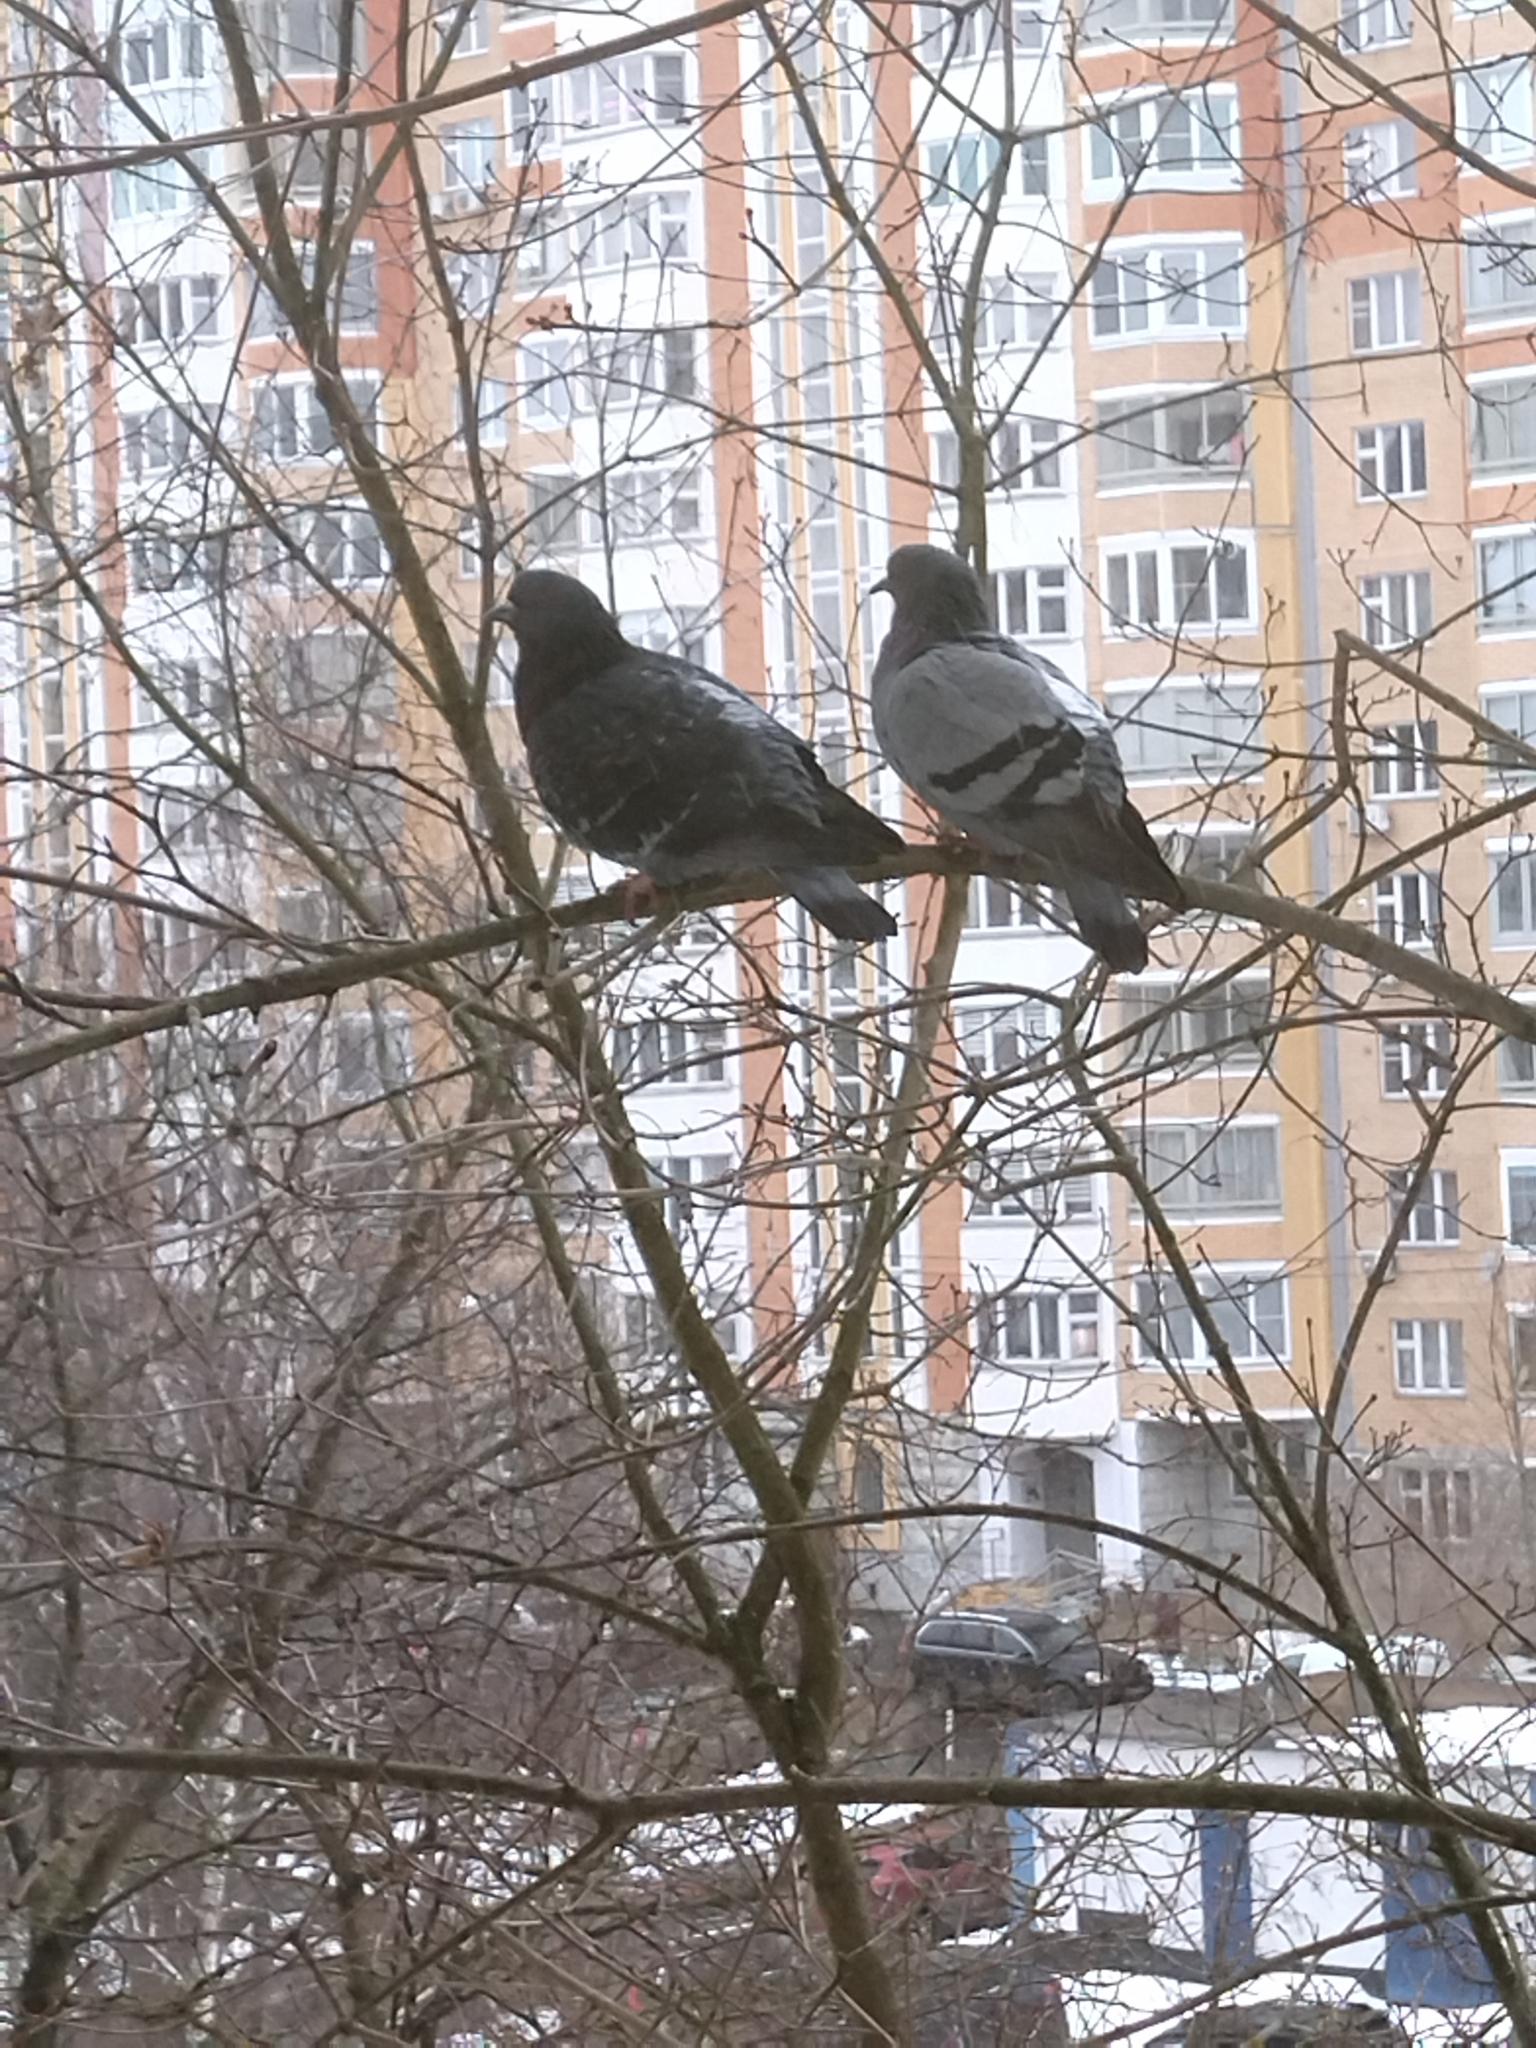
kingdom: Animalia
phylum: Chordata
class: Aves
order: Columbiformes
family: Columbidae
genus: Columba
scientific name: Columba livia
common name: Rock pigeon
